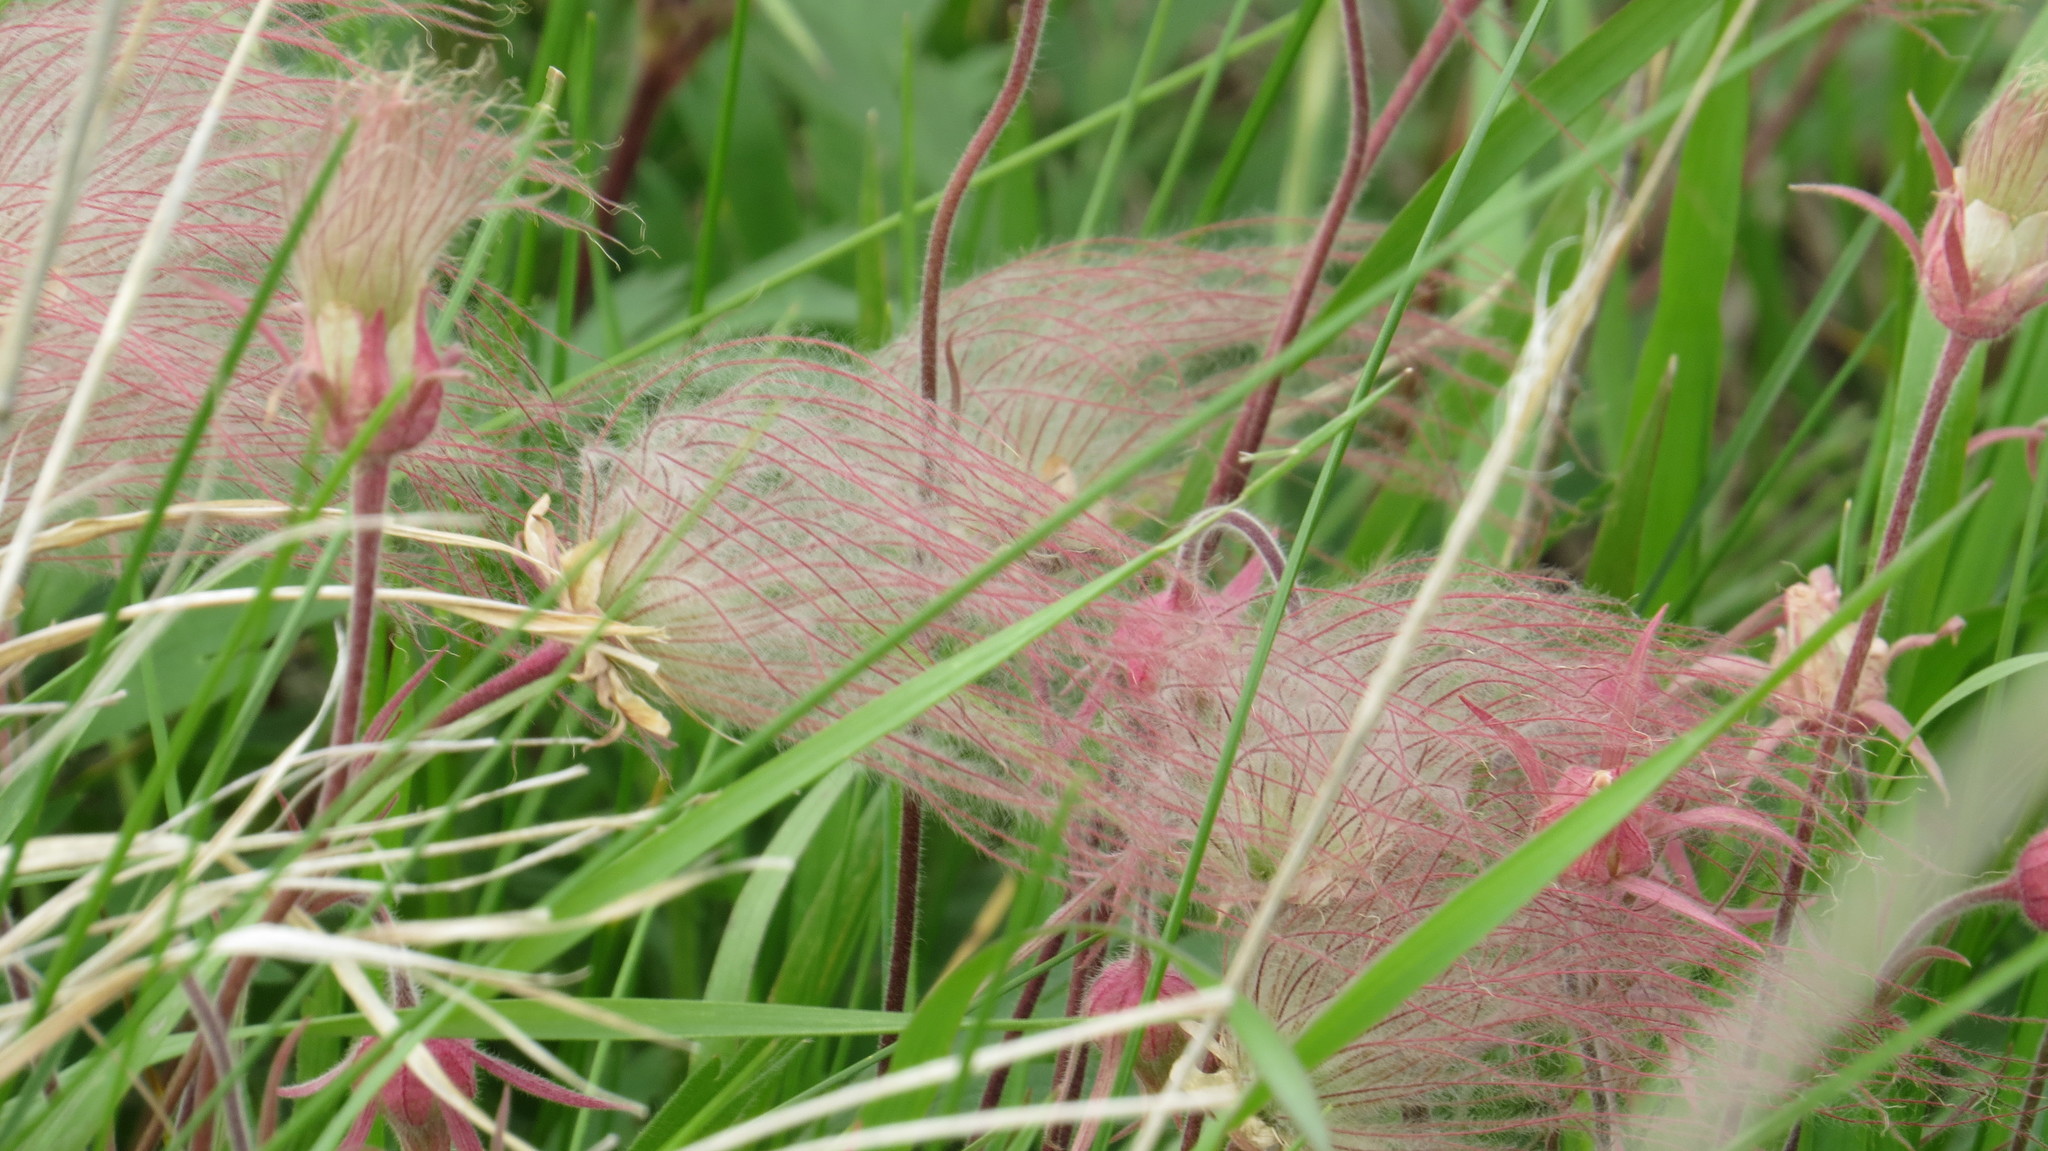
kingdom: Plantae
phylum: Tracheophyta
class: Magnoliopsida
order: Rosales
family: Rosaceae
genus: Geum
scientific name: Geum triflorum
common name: Old man's whiskers
